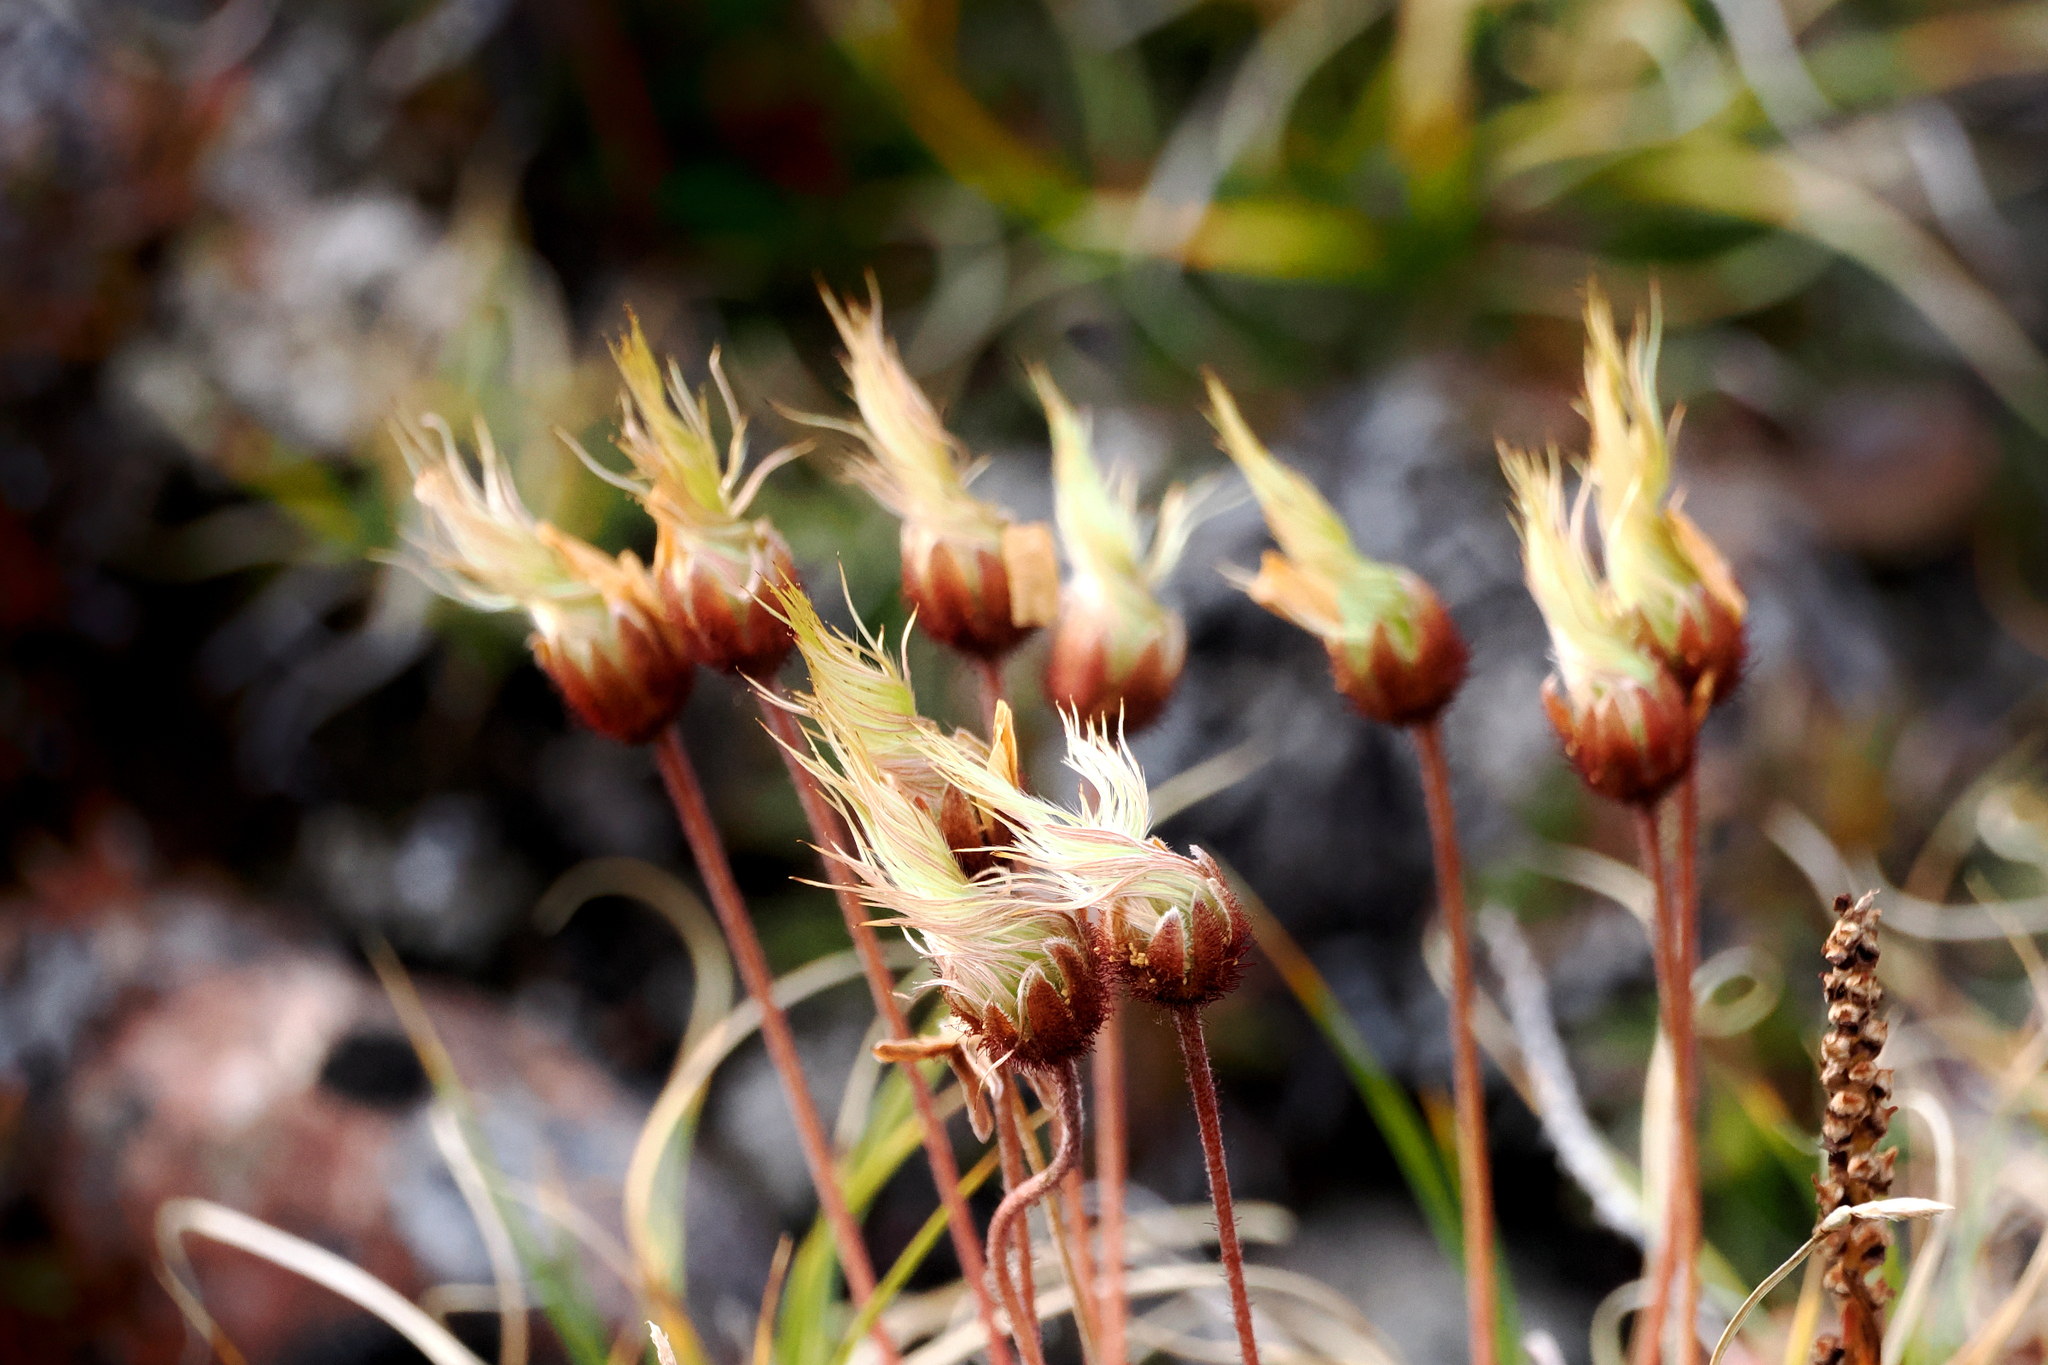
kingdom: Plantae
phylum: Tracheophyta
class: Magnoliopsida
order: Rosales
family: Rosaceae
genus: Dryas
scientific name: Dryas integrifolia
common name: Entire-leaved mountain avens
